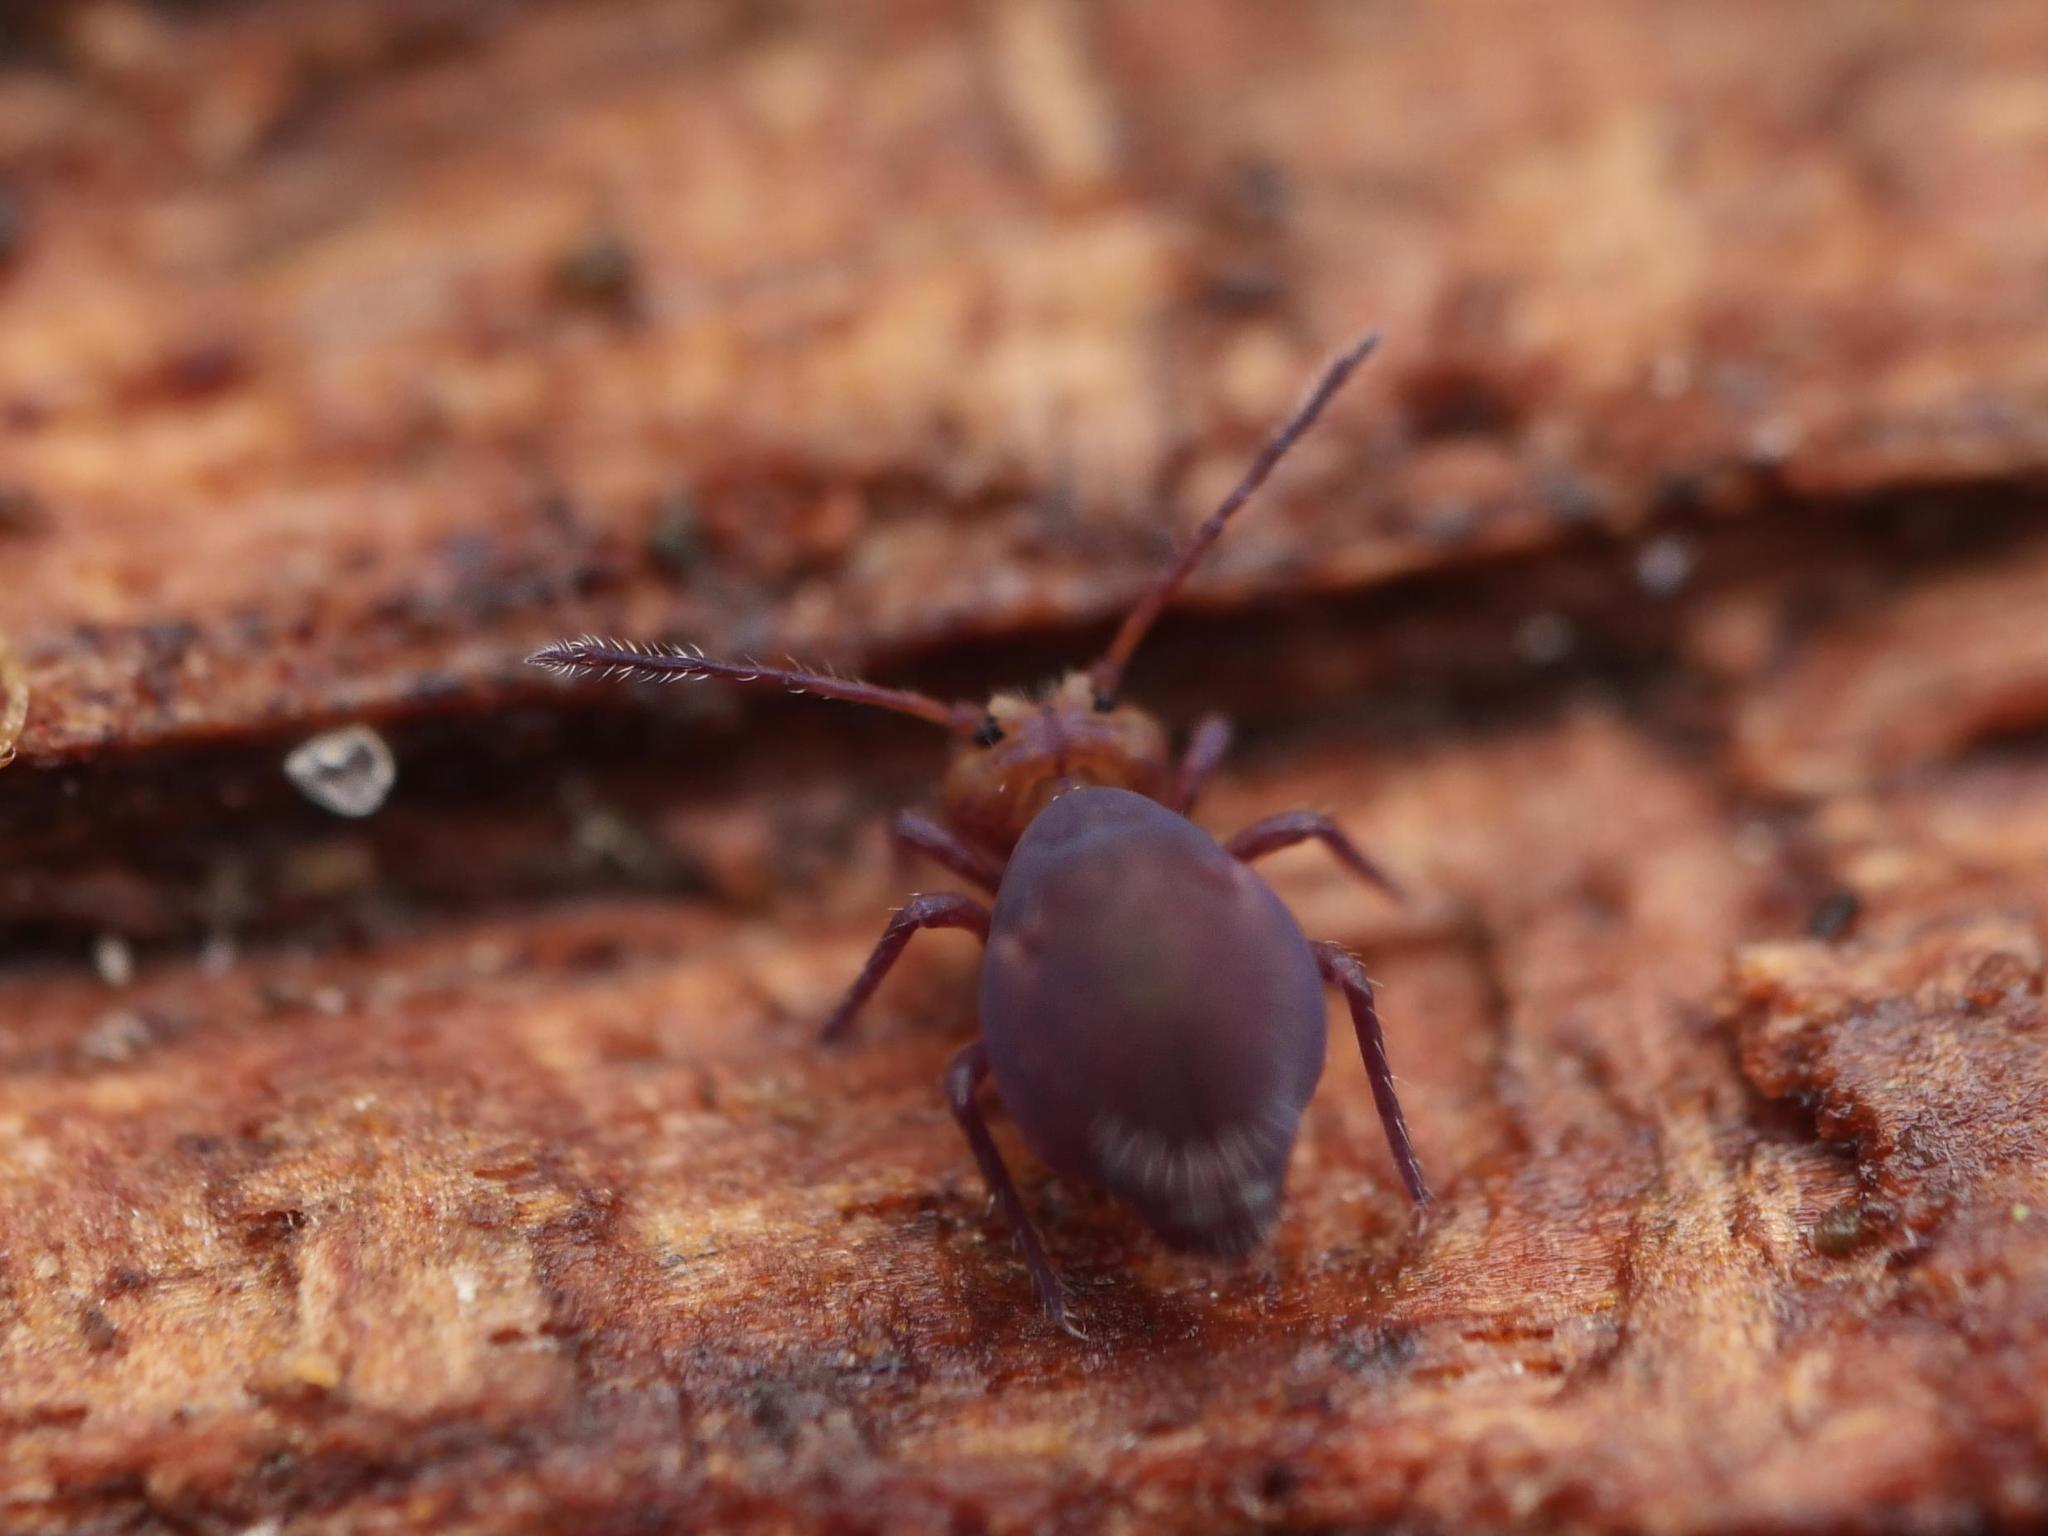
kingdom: Animalia
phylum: Arthropoda
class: Collembola
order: Symphypleona
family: Dicyrtomidae
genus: Dicyrtoma
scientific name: Dicyrtoma fusca
